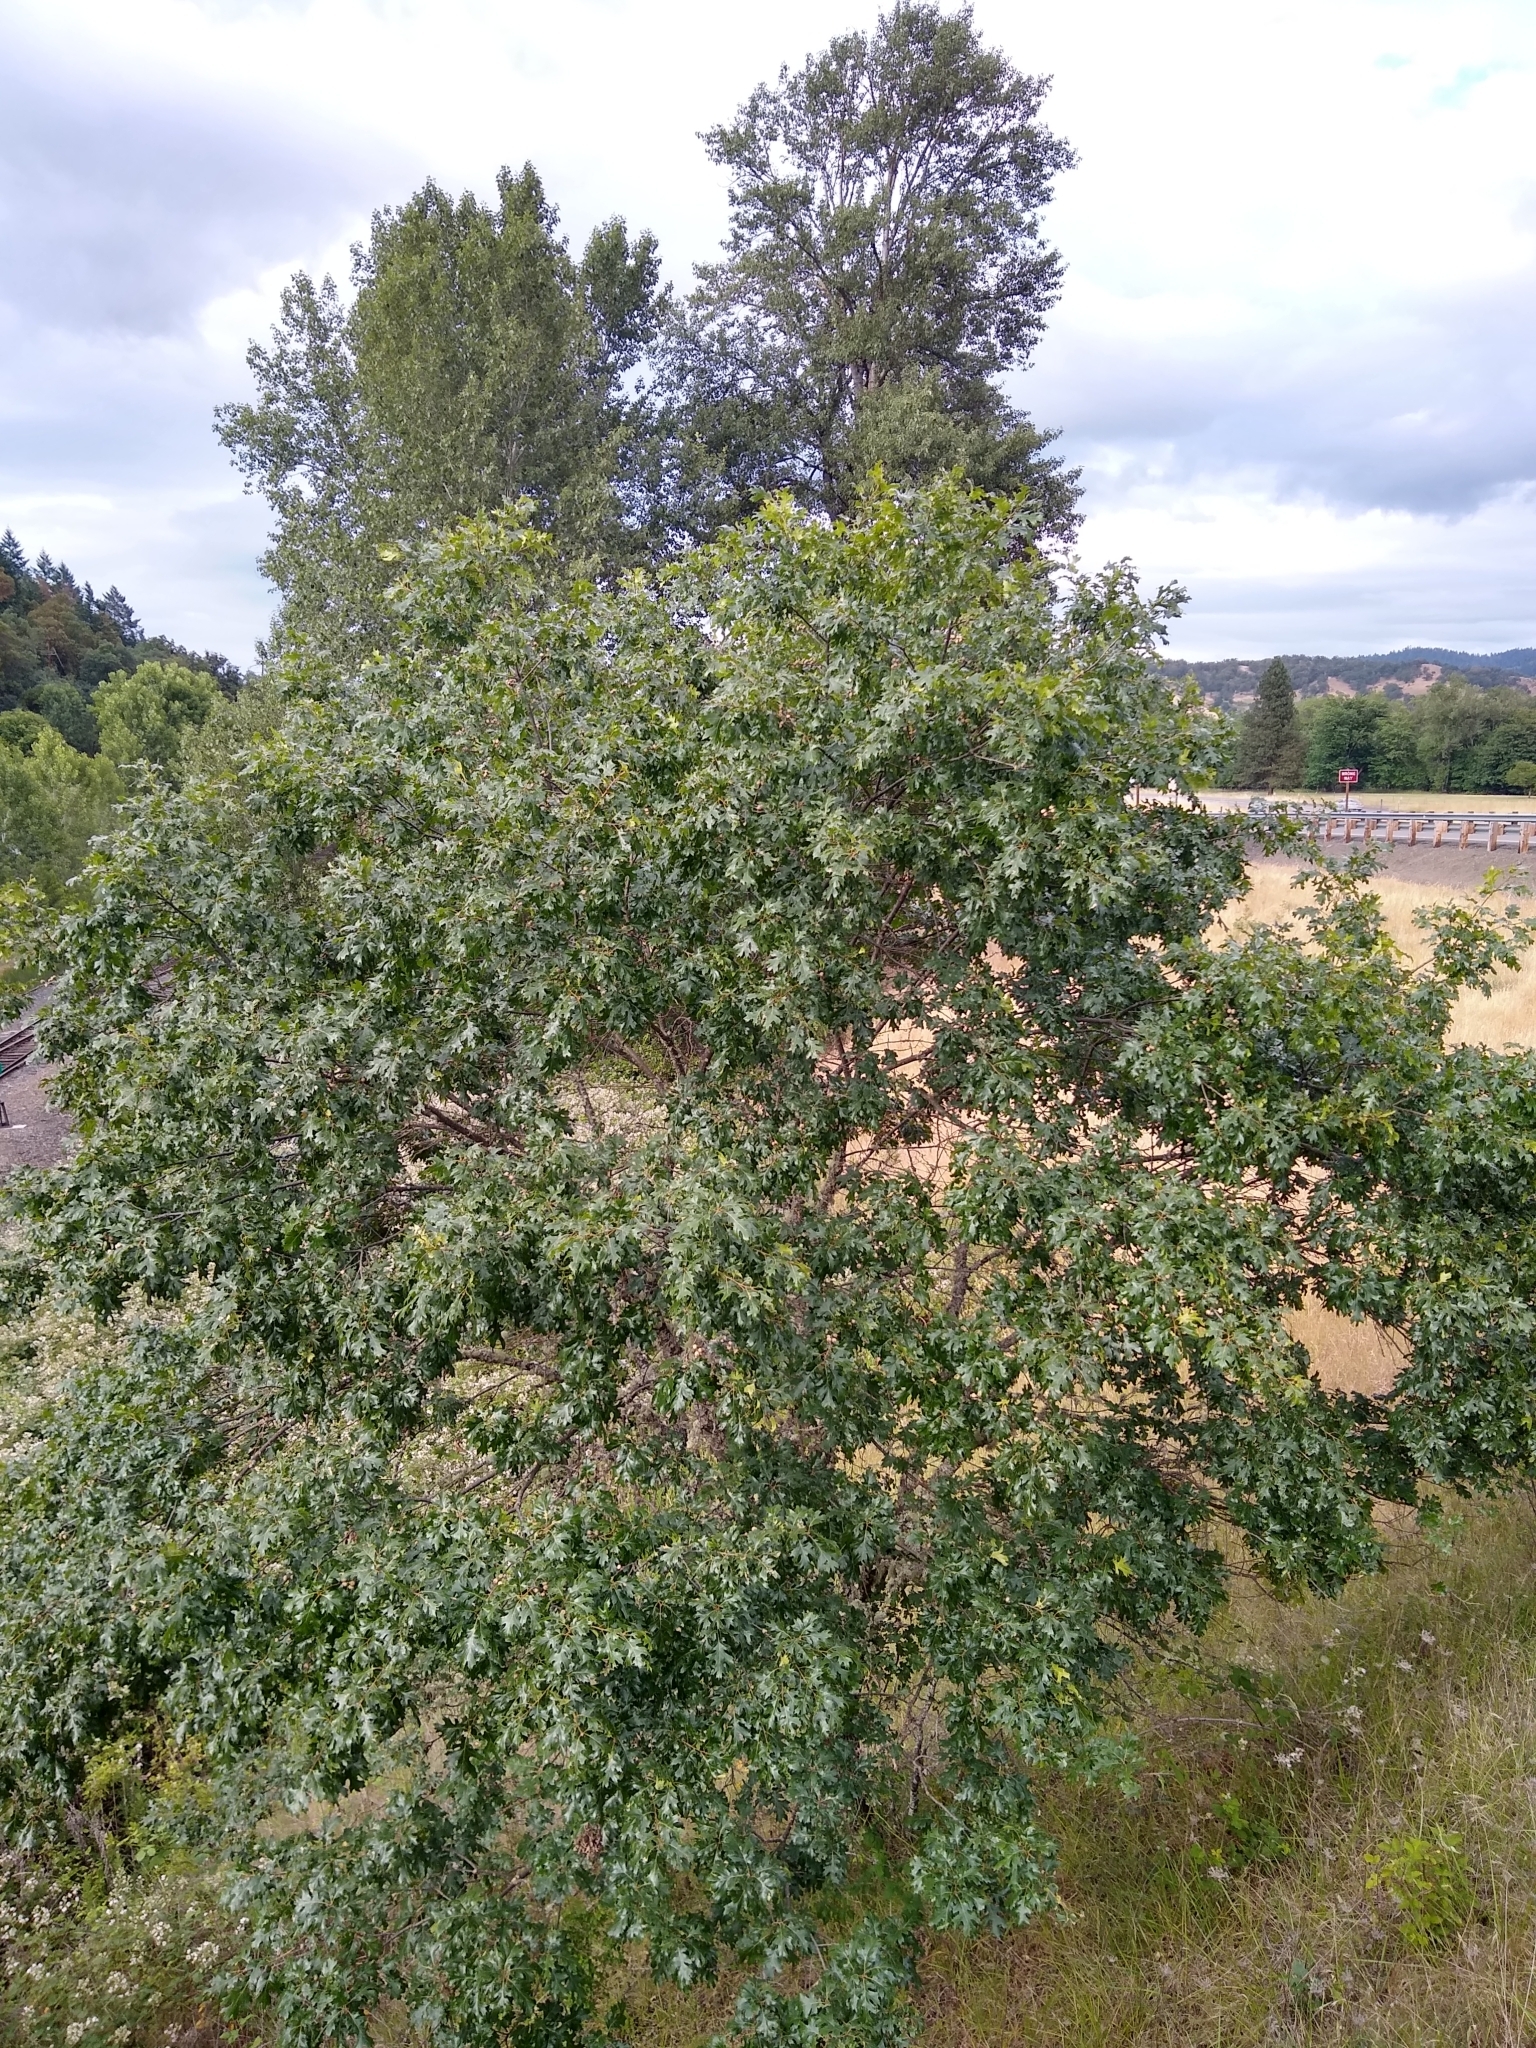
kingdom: Plantae
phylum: Tracheophyta
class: Magnoliopsida
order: Fagales
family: Fagaceae
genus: Quercus
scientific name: Quercus garryana
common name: Garry oak
